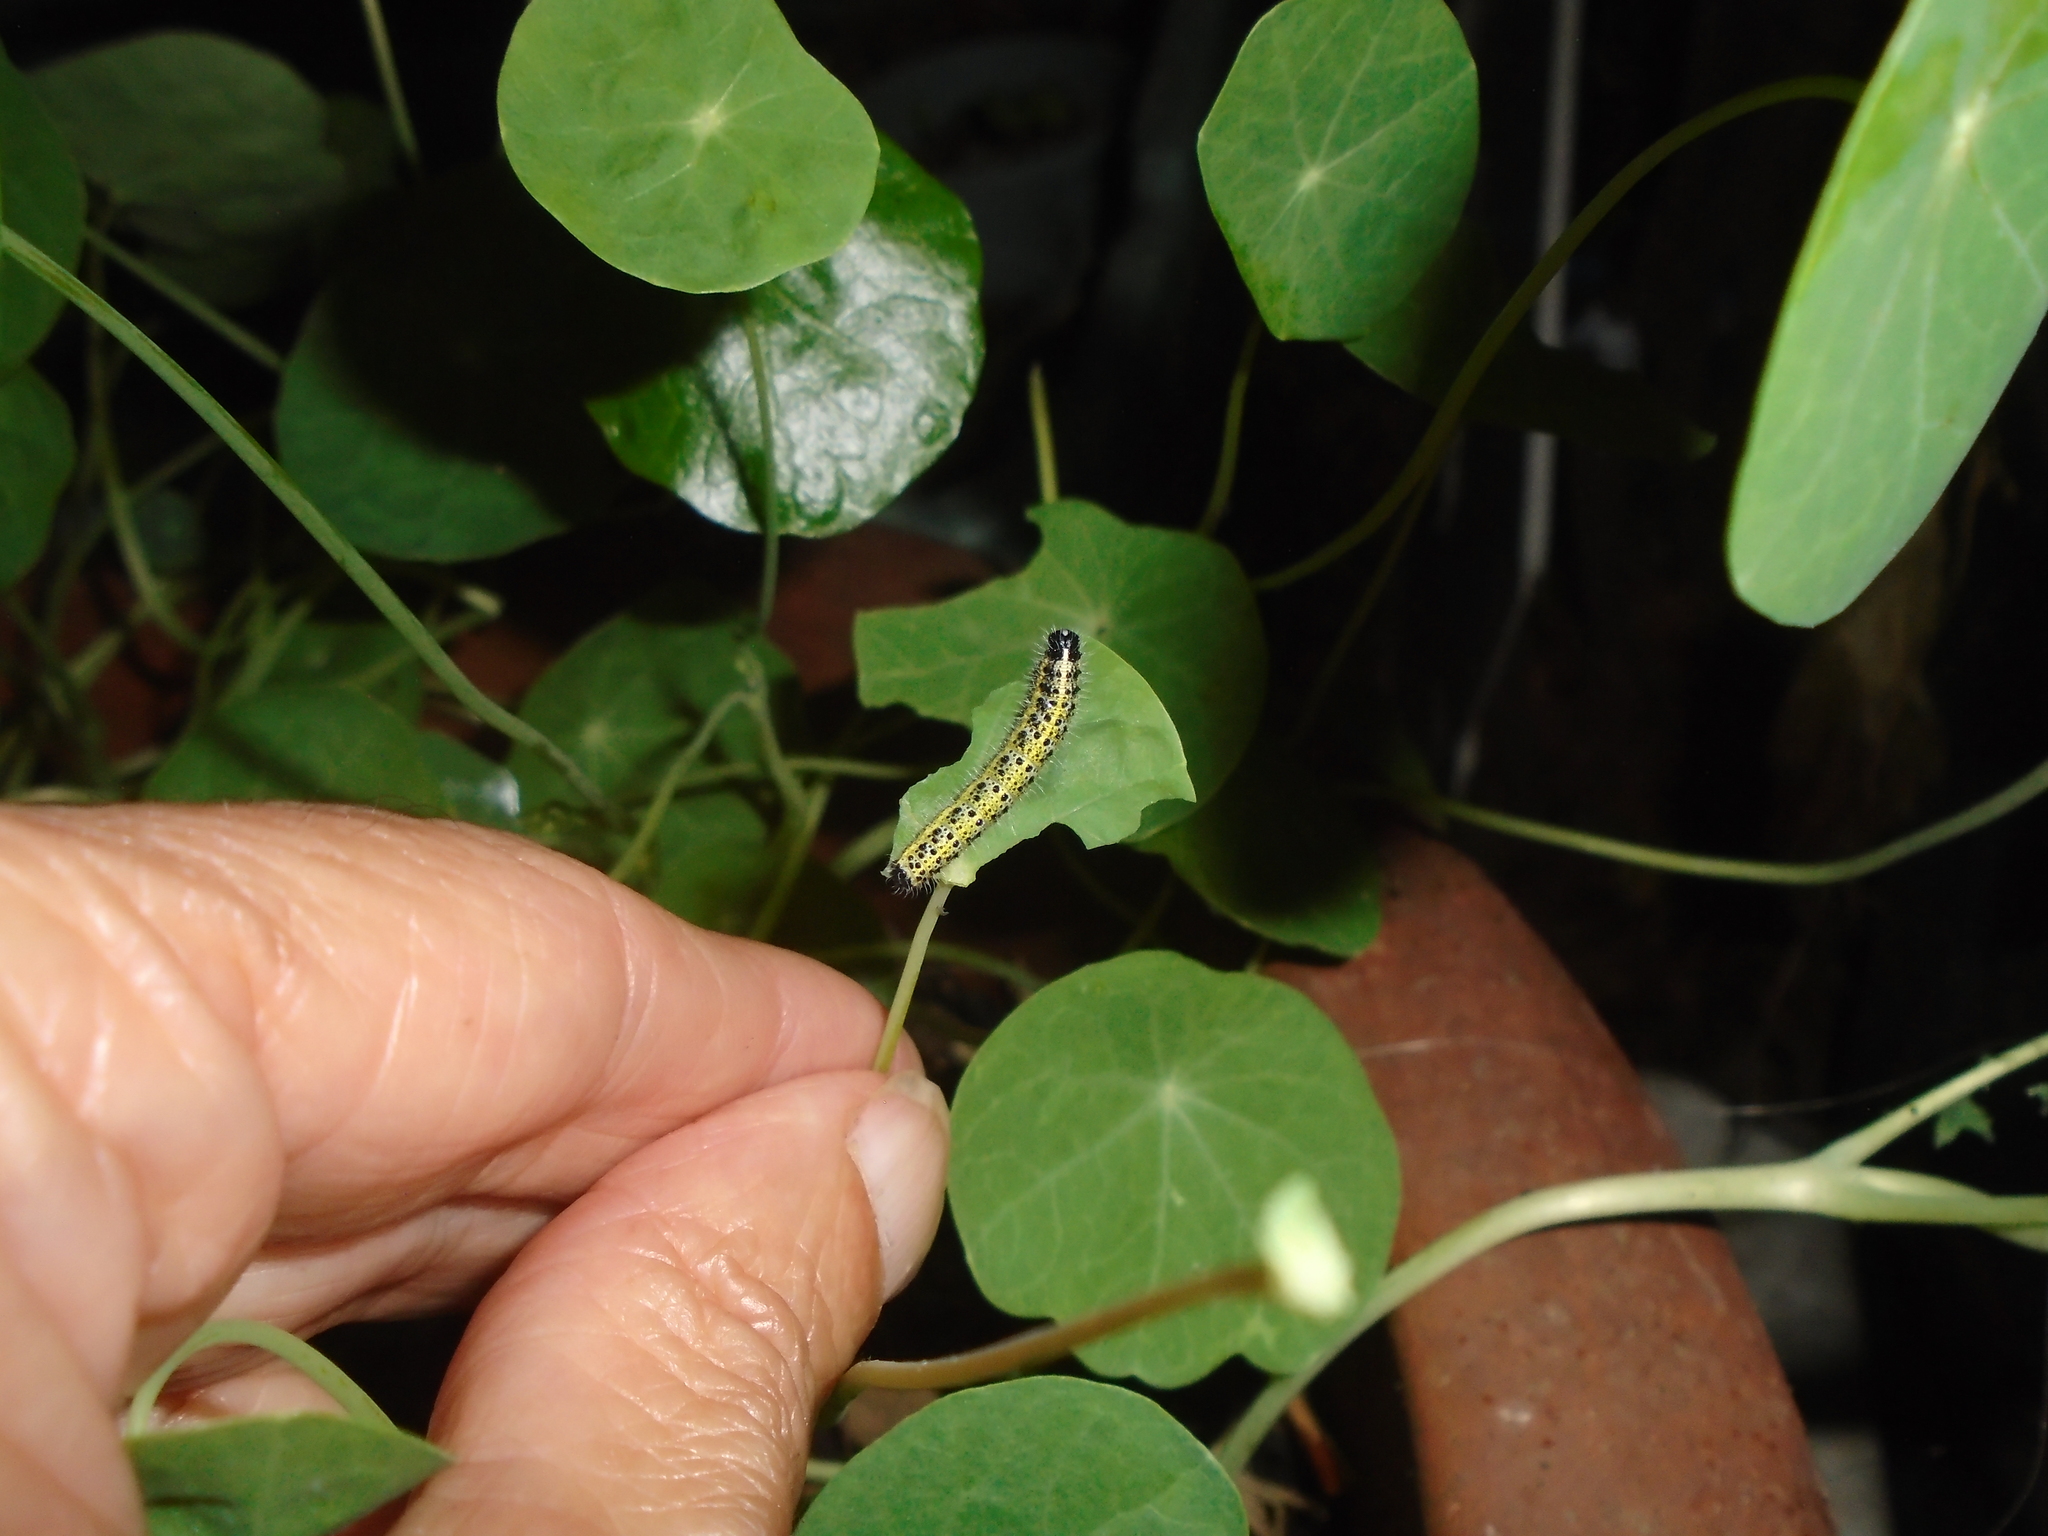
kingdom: Animalia
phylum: Arthropoda
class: Insecta
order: Lepidoptera
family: Pieridae
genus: Pieris
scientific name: Pieris brassicae
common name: Large white
